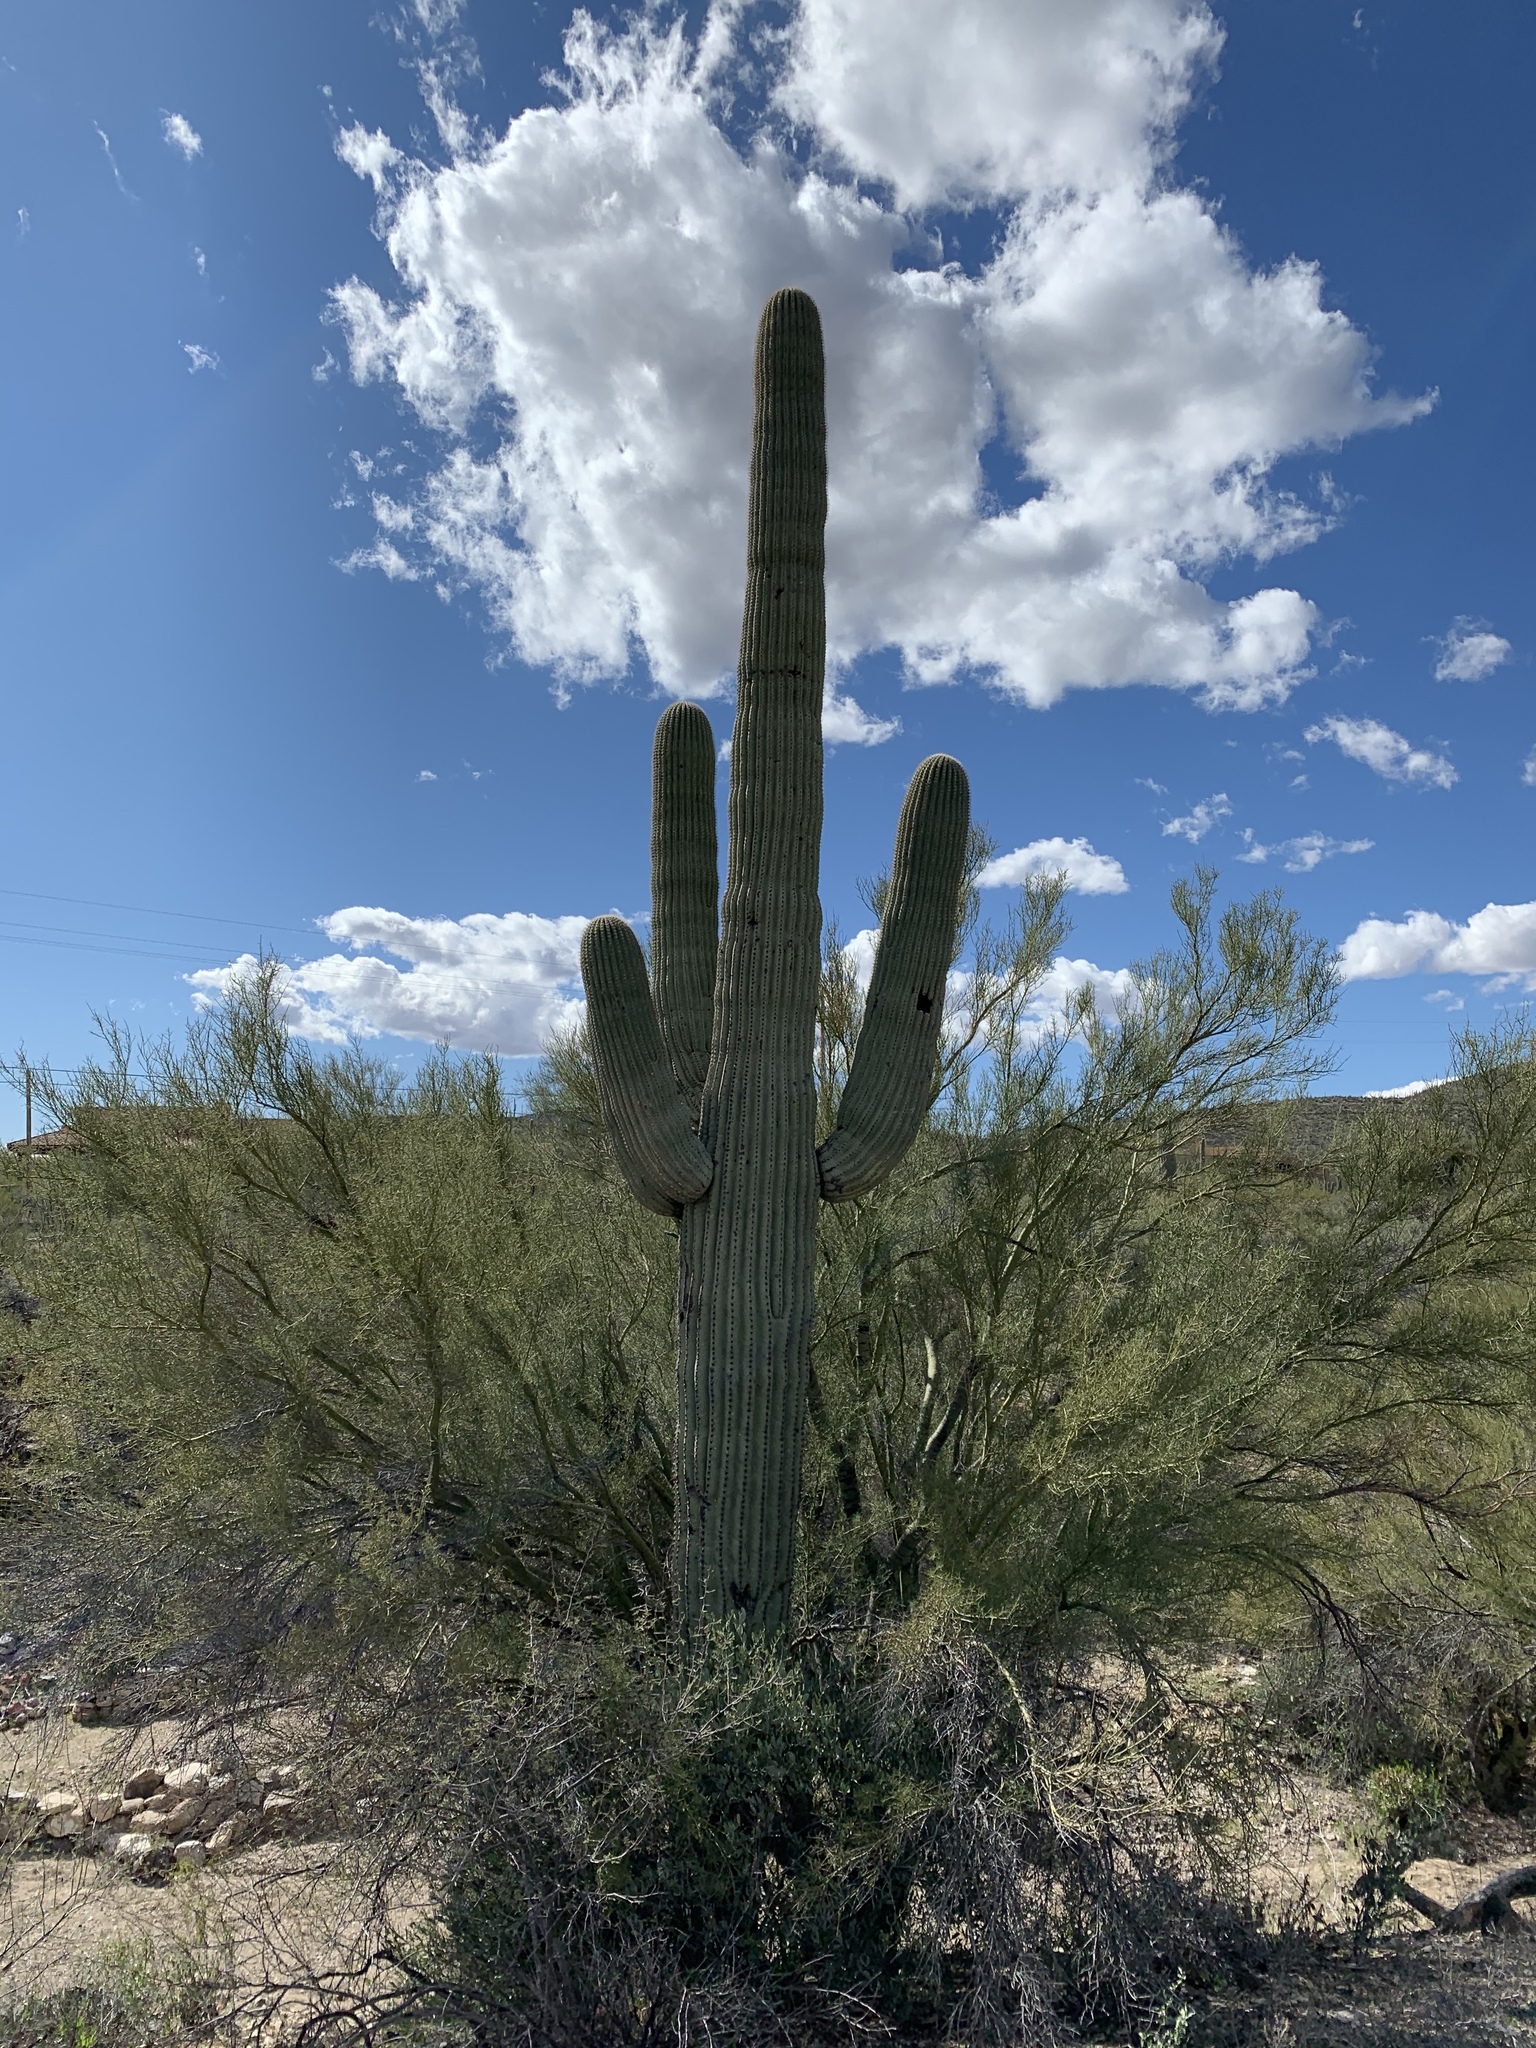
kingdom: Plantae
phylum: Tracheophyta
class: Magnoliopsida
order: Caryophyllales
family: Cactaceae
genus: Carnegiea
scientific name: Carnegiea gigantea
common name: Saguaro
